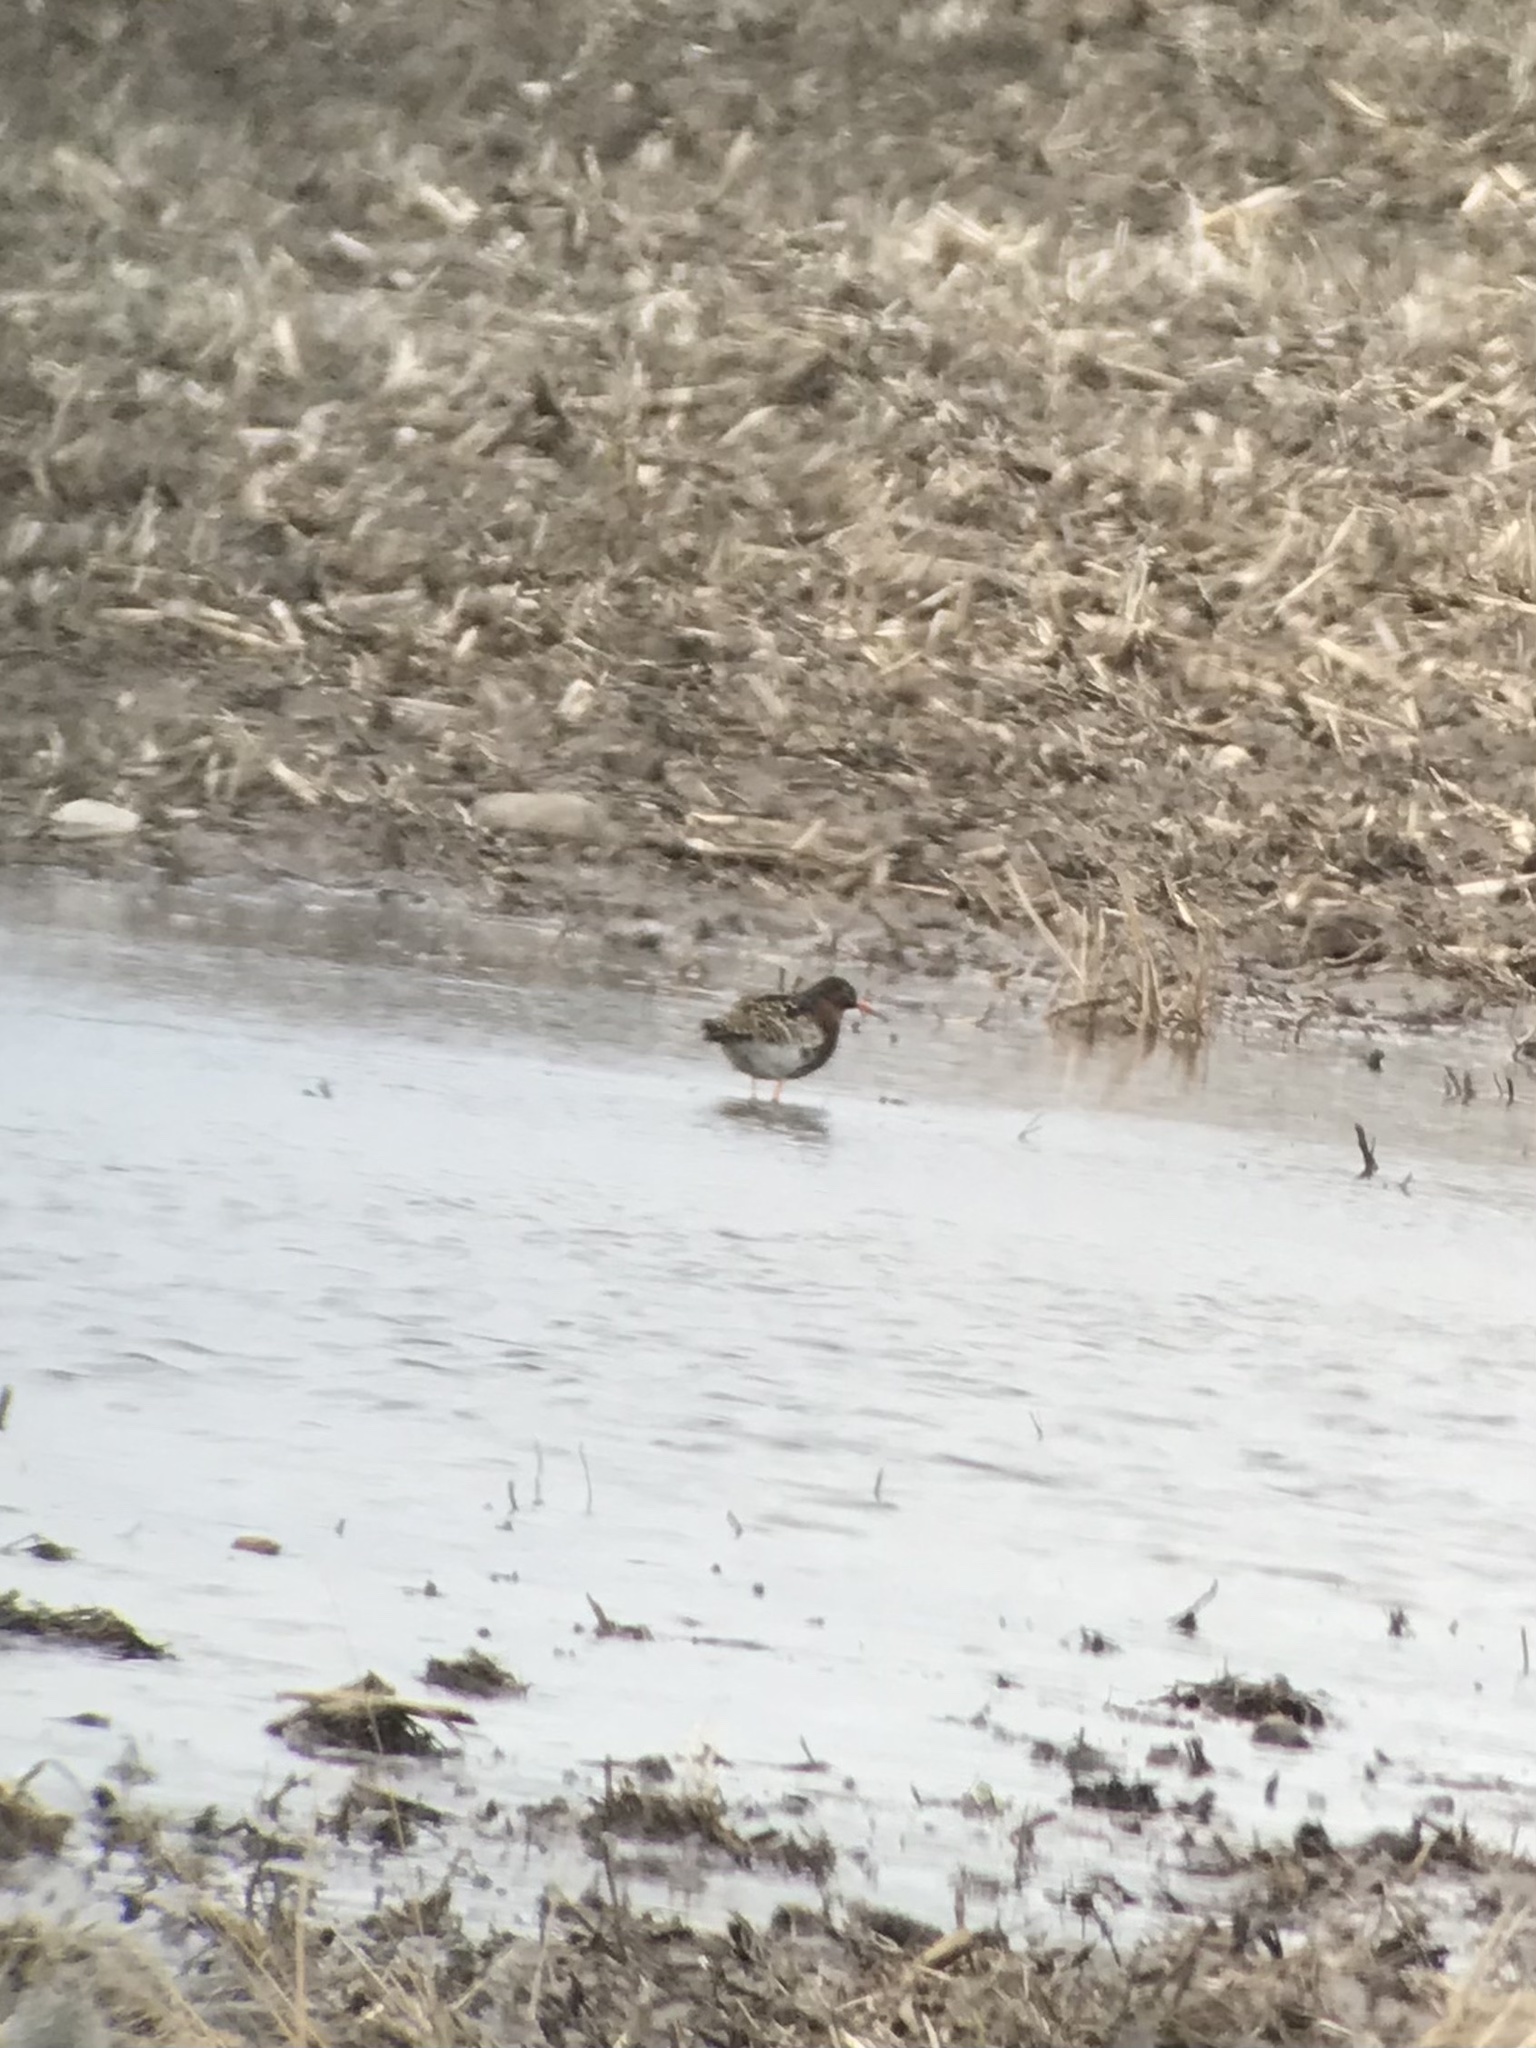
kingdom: Animalia
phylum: Chordata
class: Aves
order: Charadriiformes
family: Scolopacidae
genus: Calidris
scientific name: Calidris pugnax
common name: Ruff
